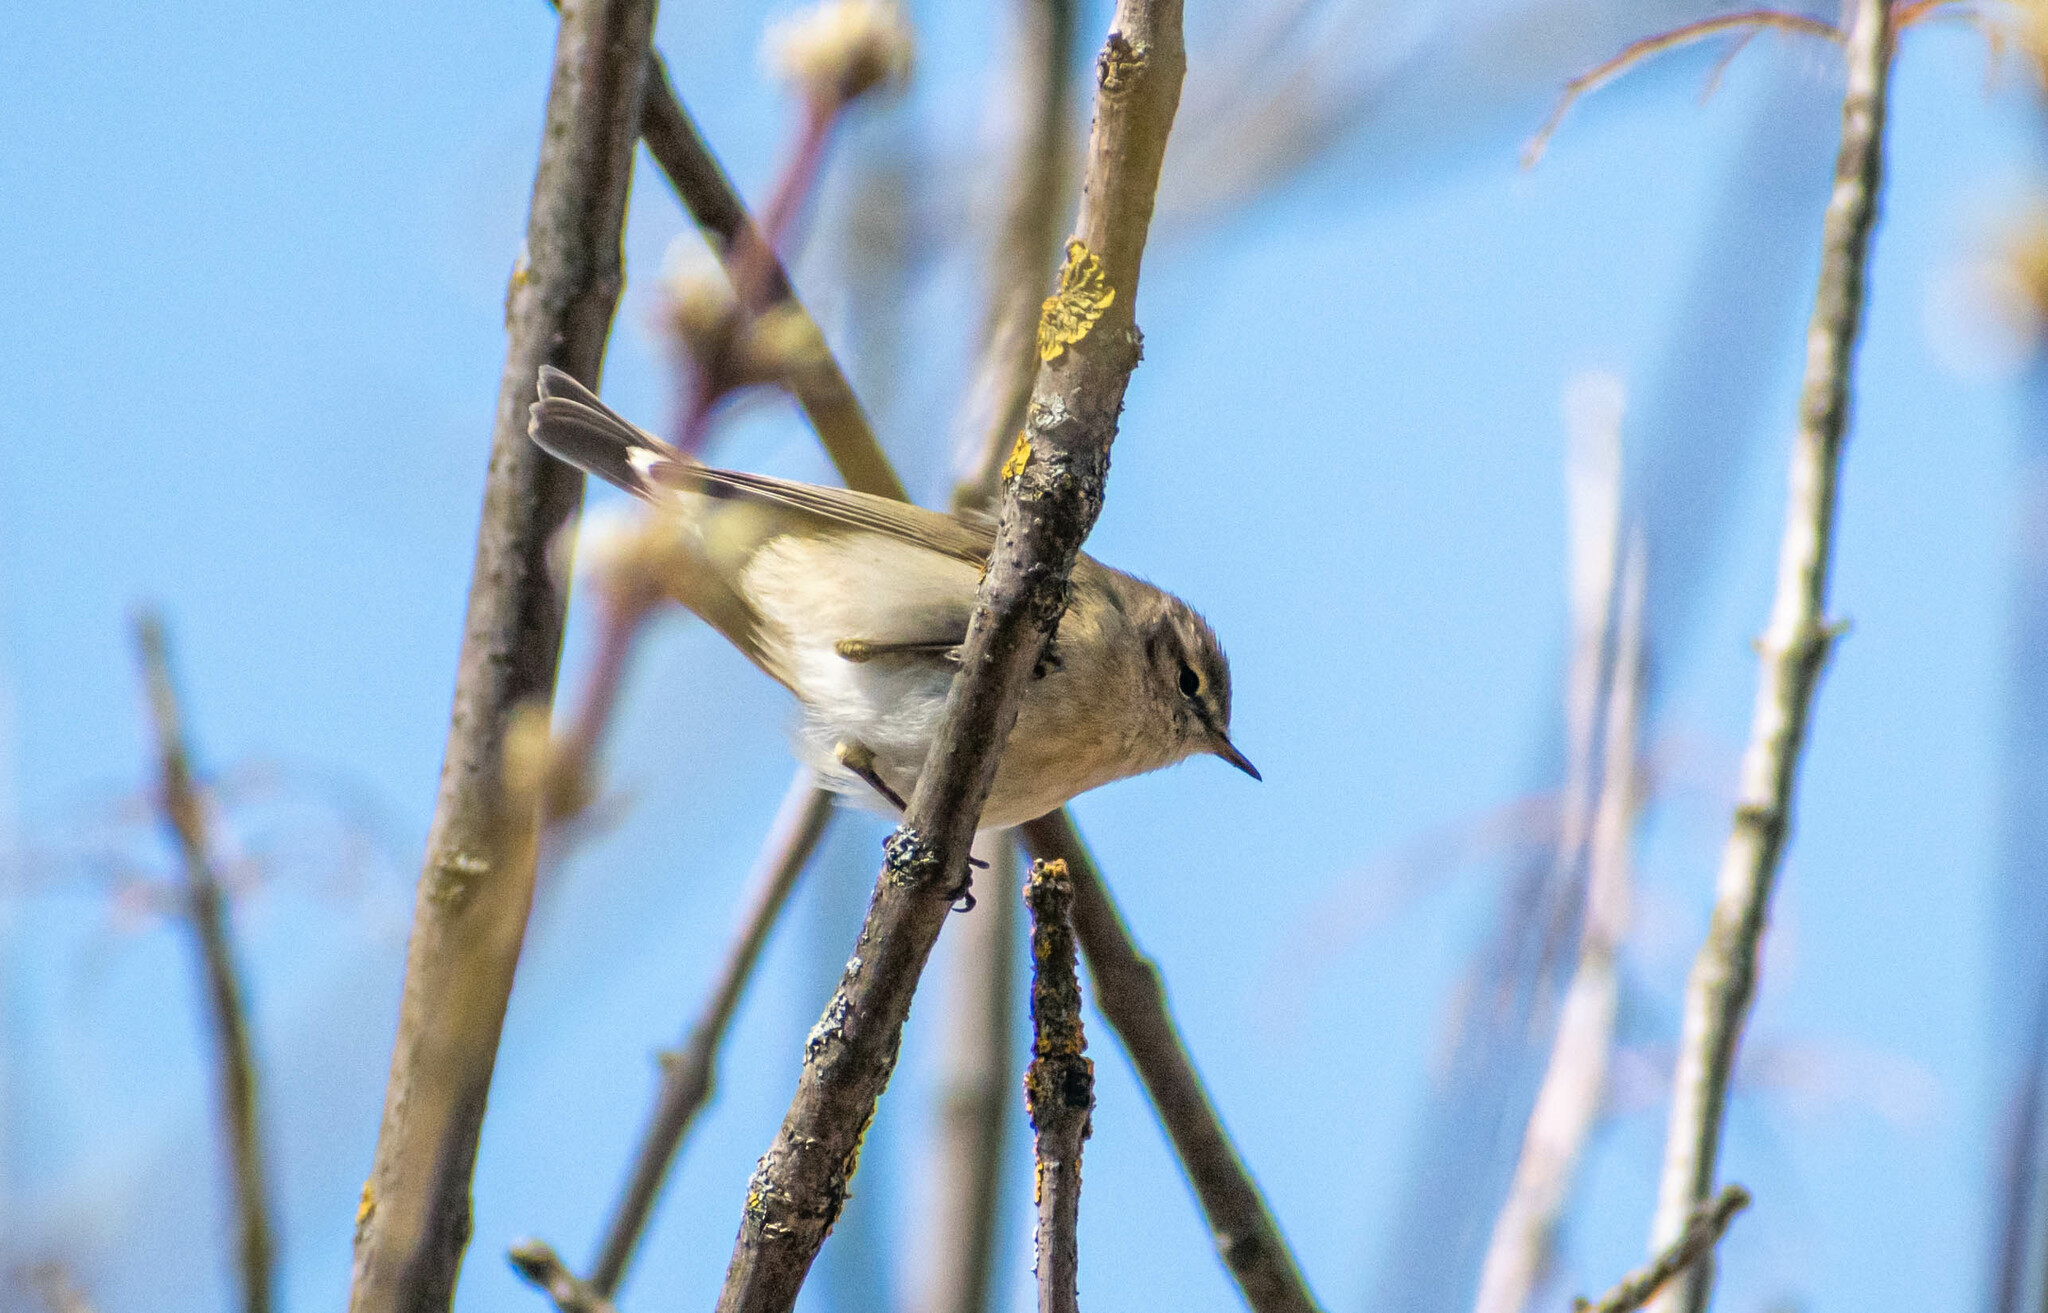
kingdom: Animalia
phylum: Chordata
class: Aves
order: Passeriformes
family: Phylloscopidae
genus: Phylloscopus
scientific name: Phylloscopus collybita
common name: Common chiffchaff
